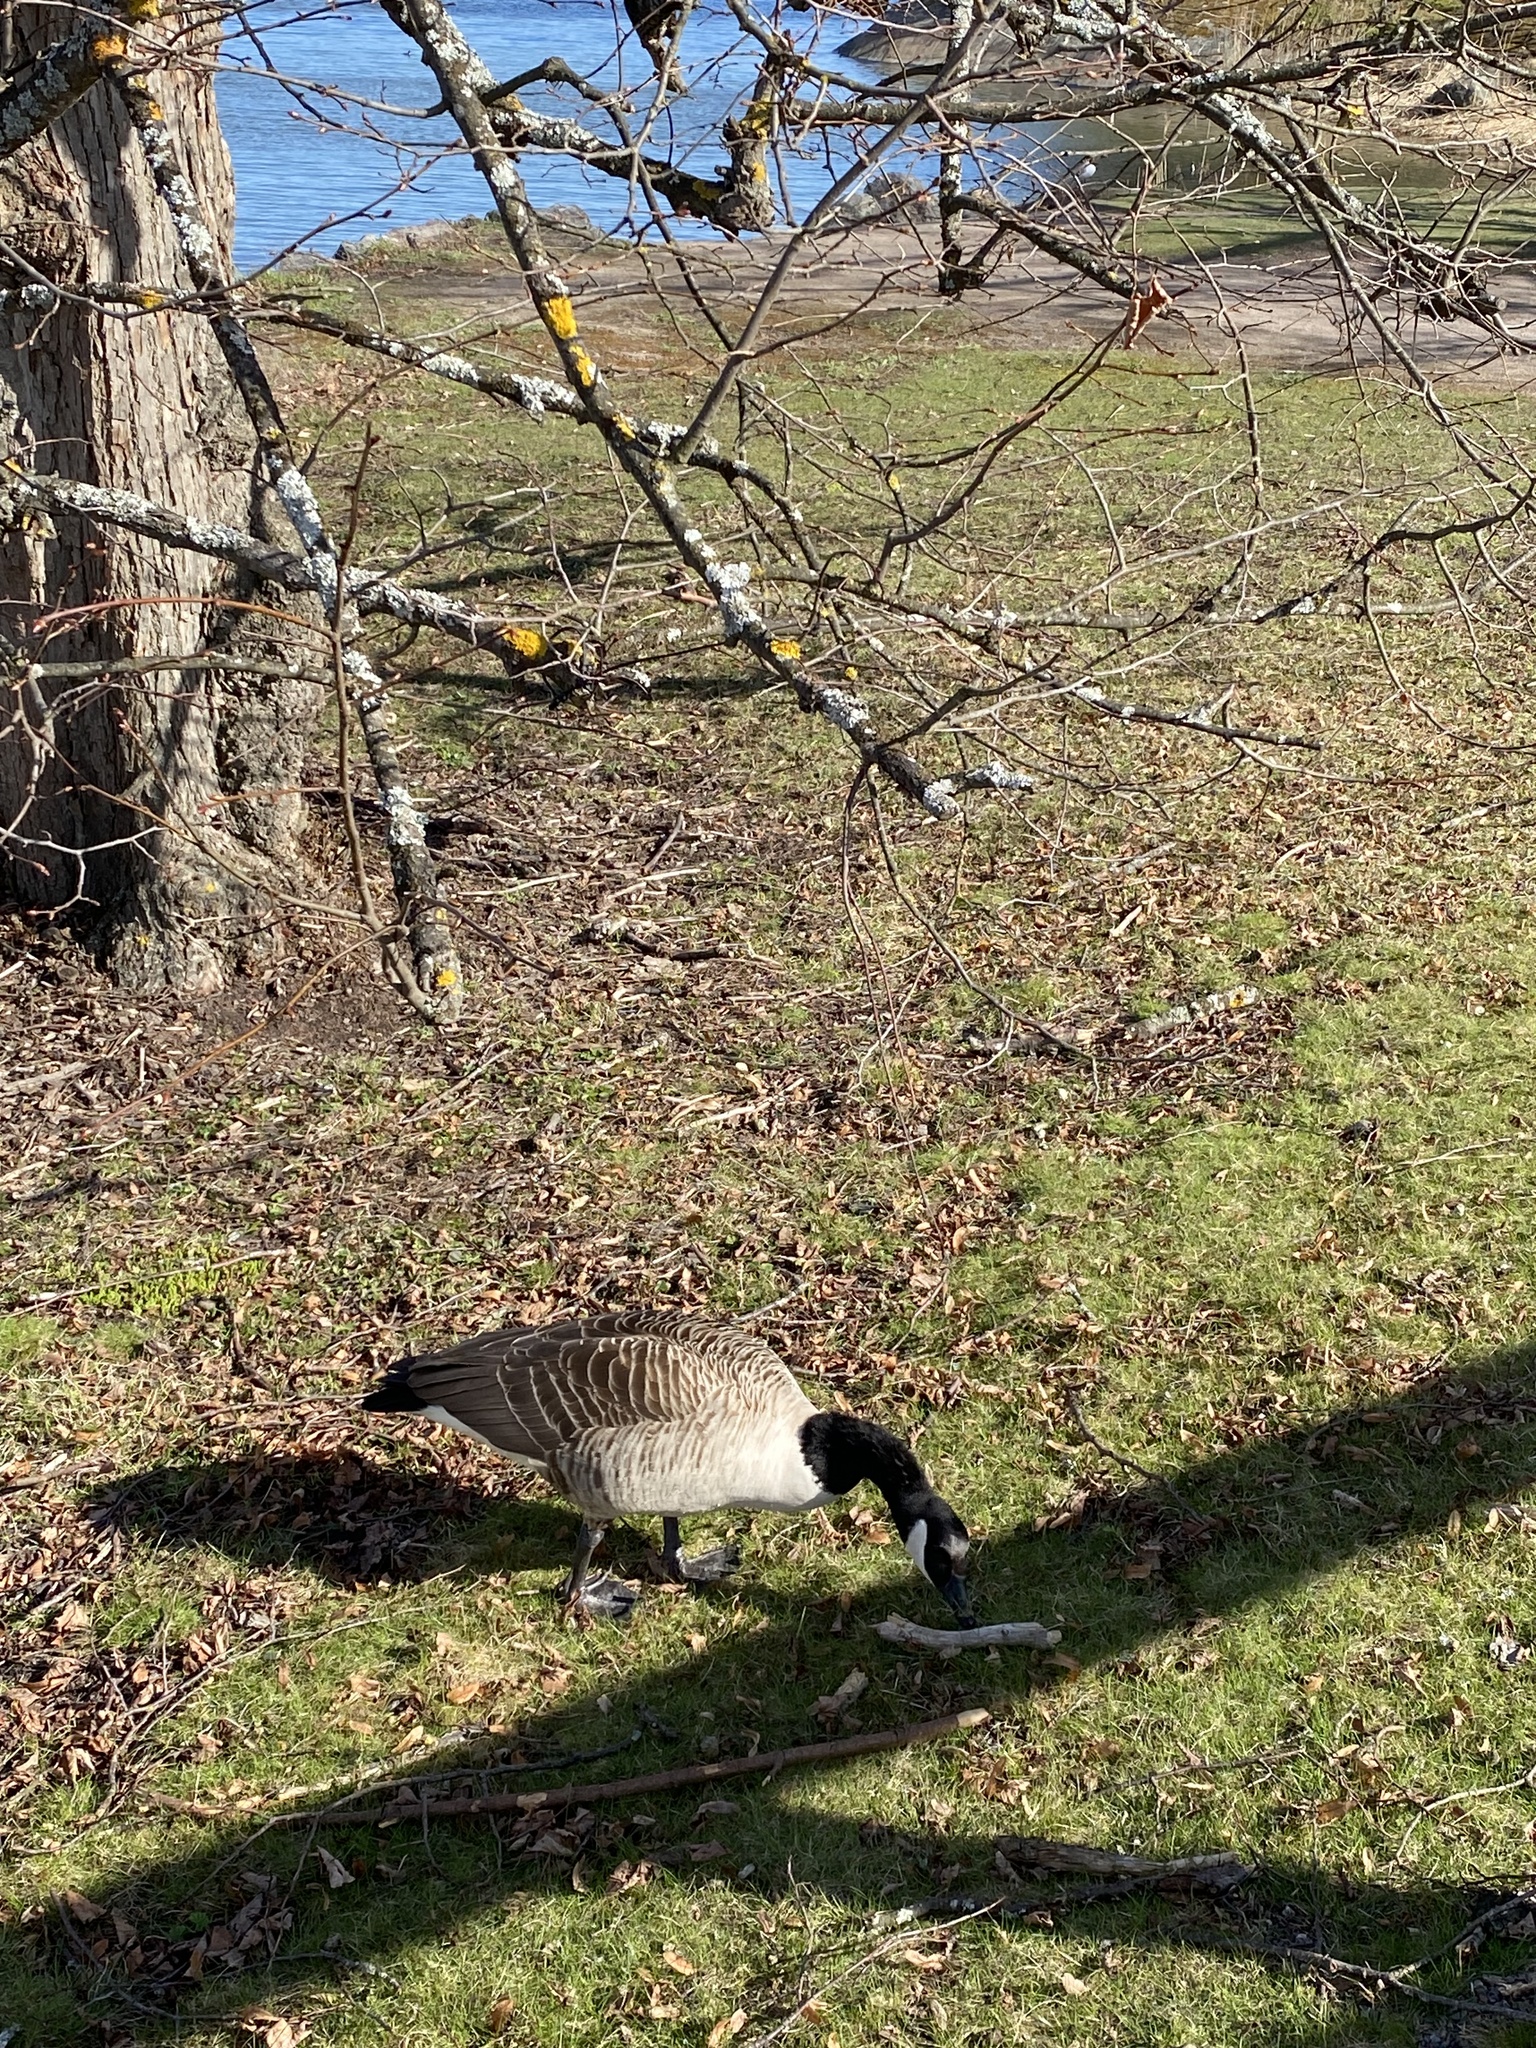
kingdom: Animalia
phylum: Chordata
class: Aves
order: Anseriformes
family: Anatidae
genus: Branta
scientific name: Branta canadensis
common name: Canada goose
